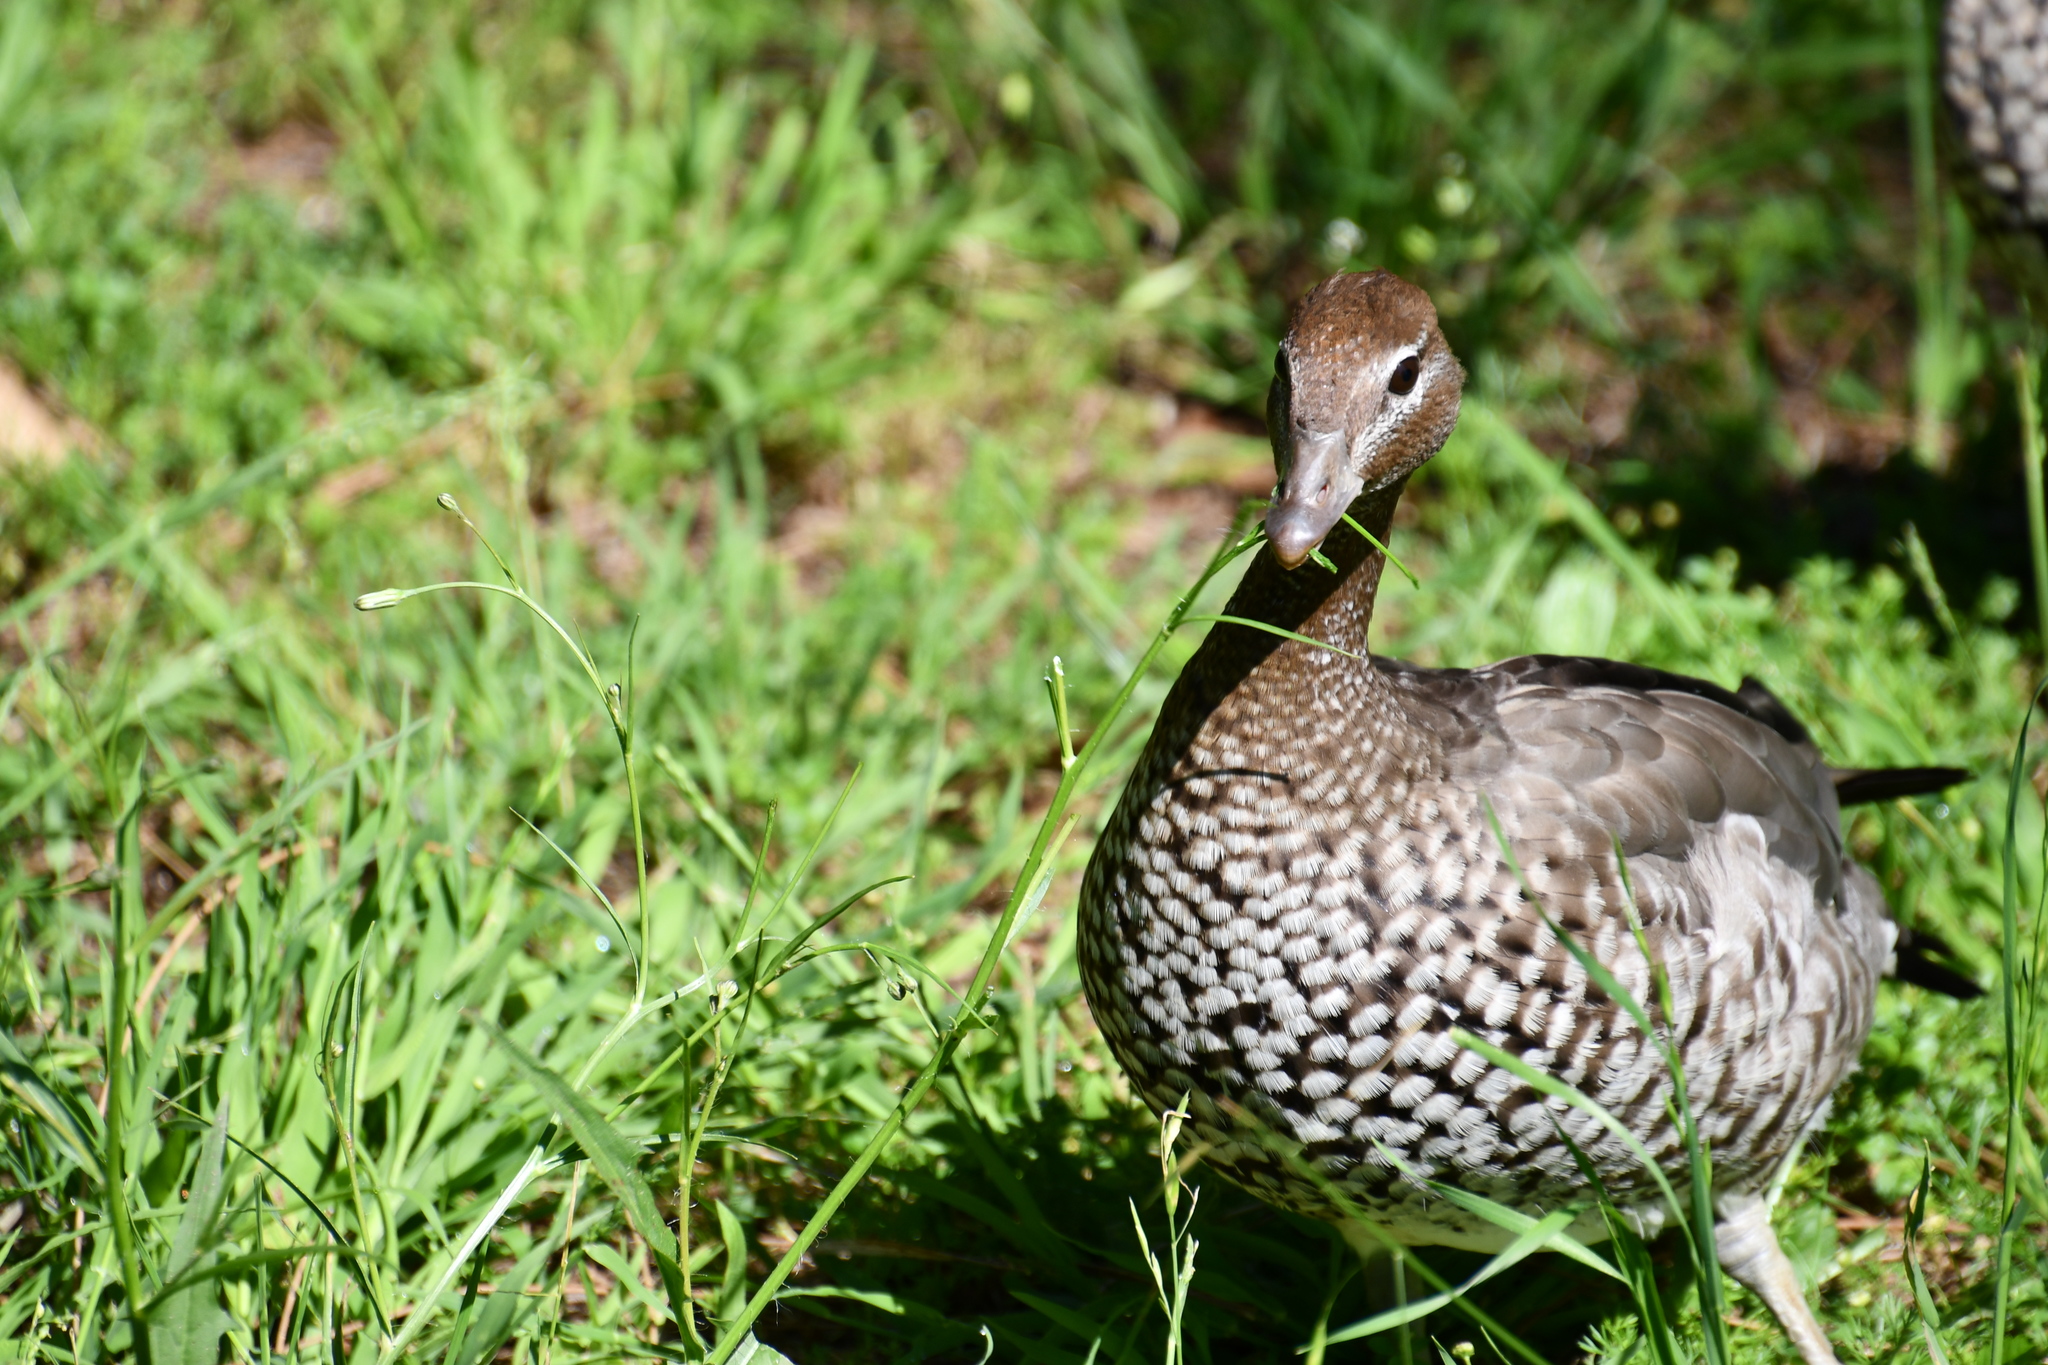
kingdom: Animalia
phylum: Chordata
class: Aves
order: Anseriformes
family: Anatidae
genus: Chenonetta
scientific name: Chenonetta jubata
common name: Maned duck
